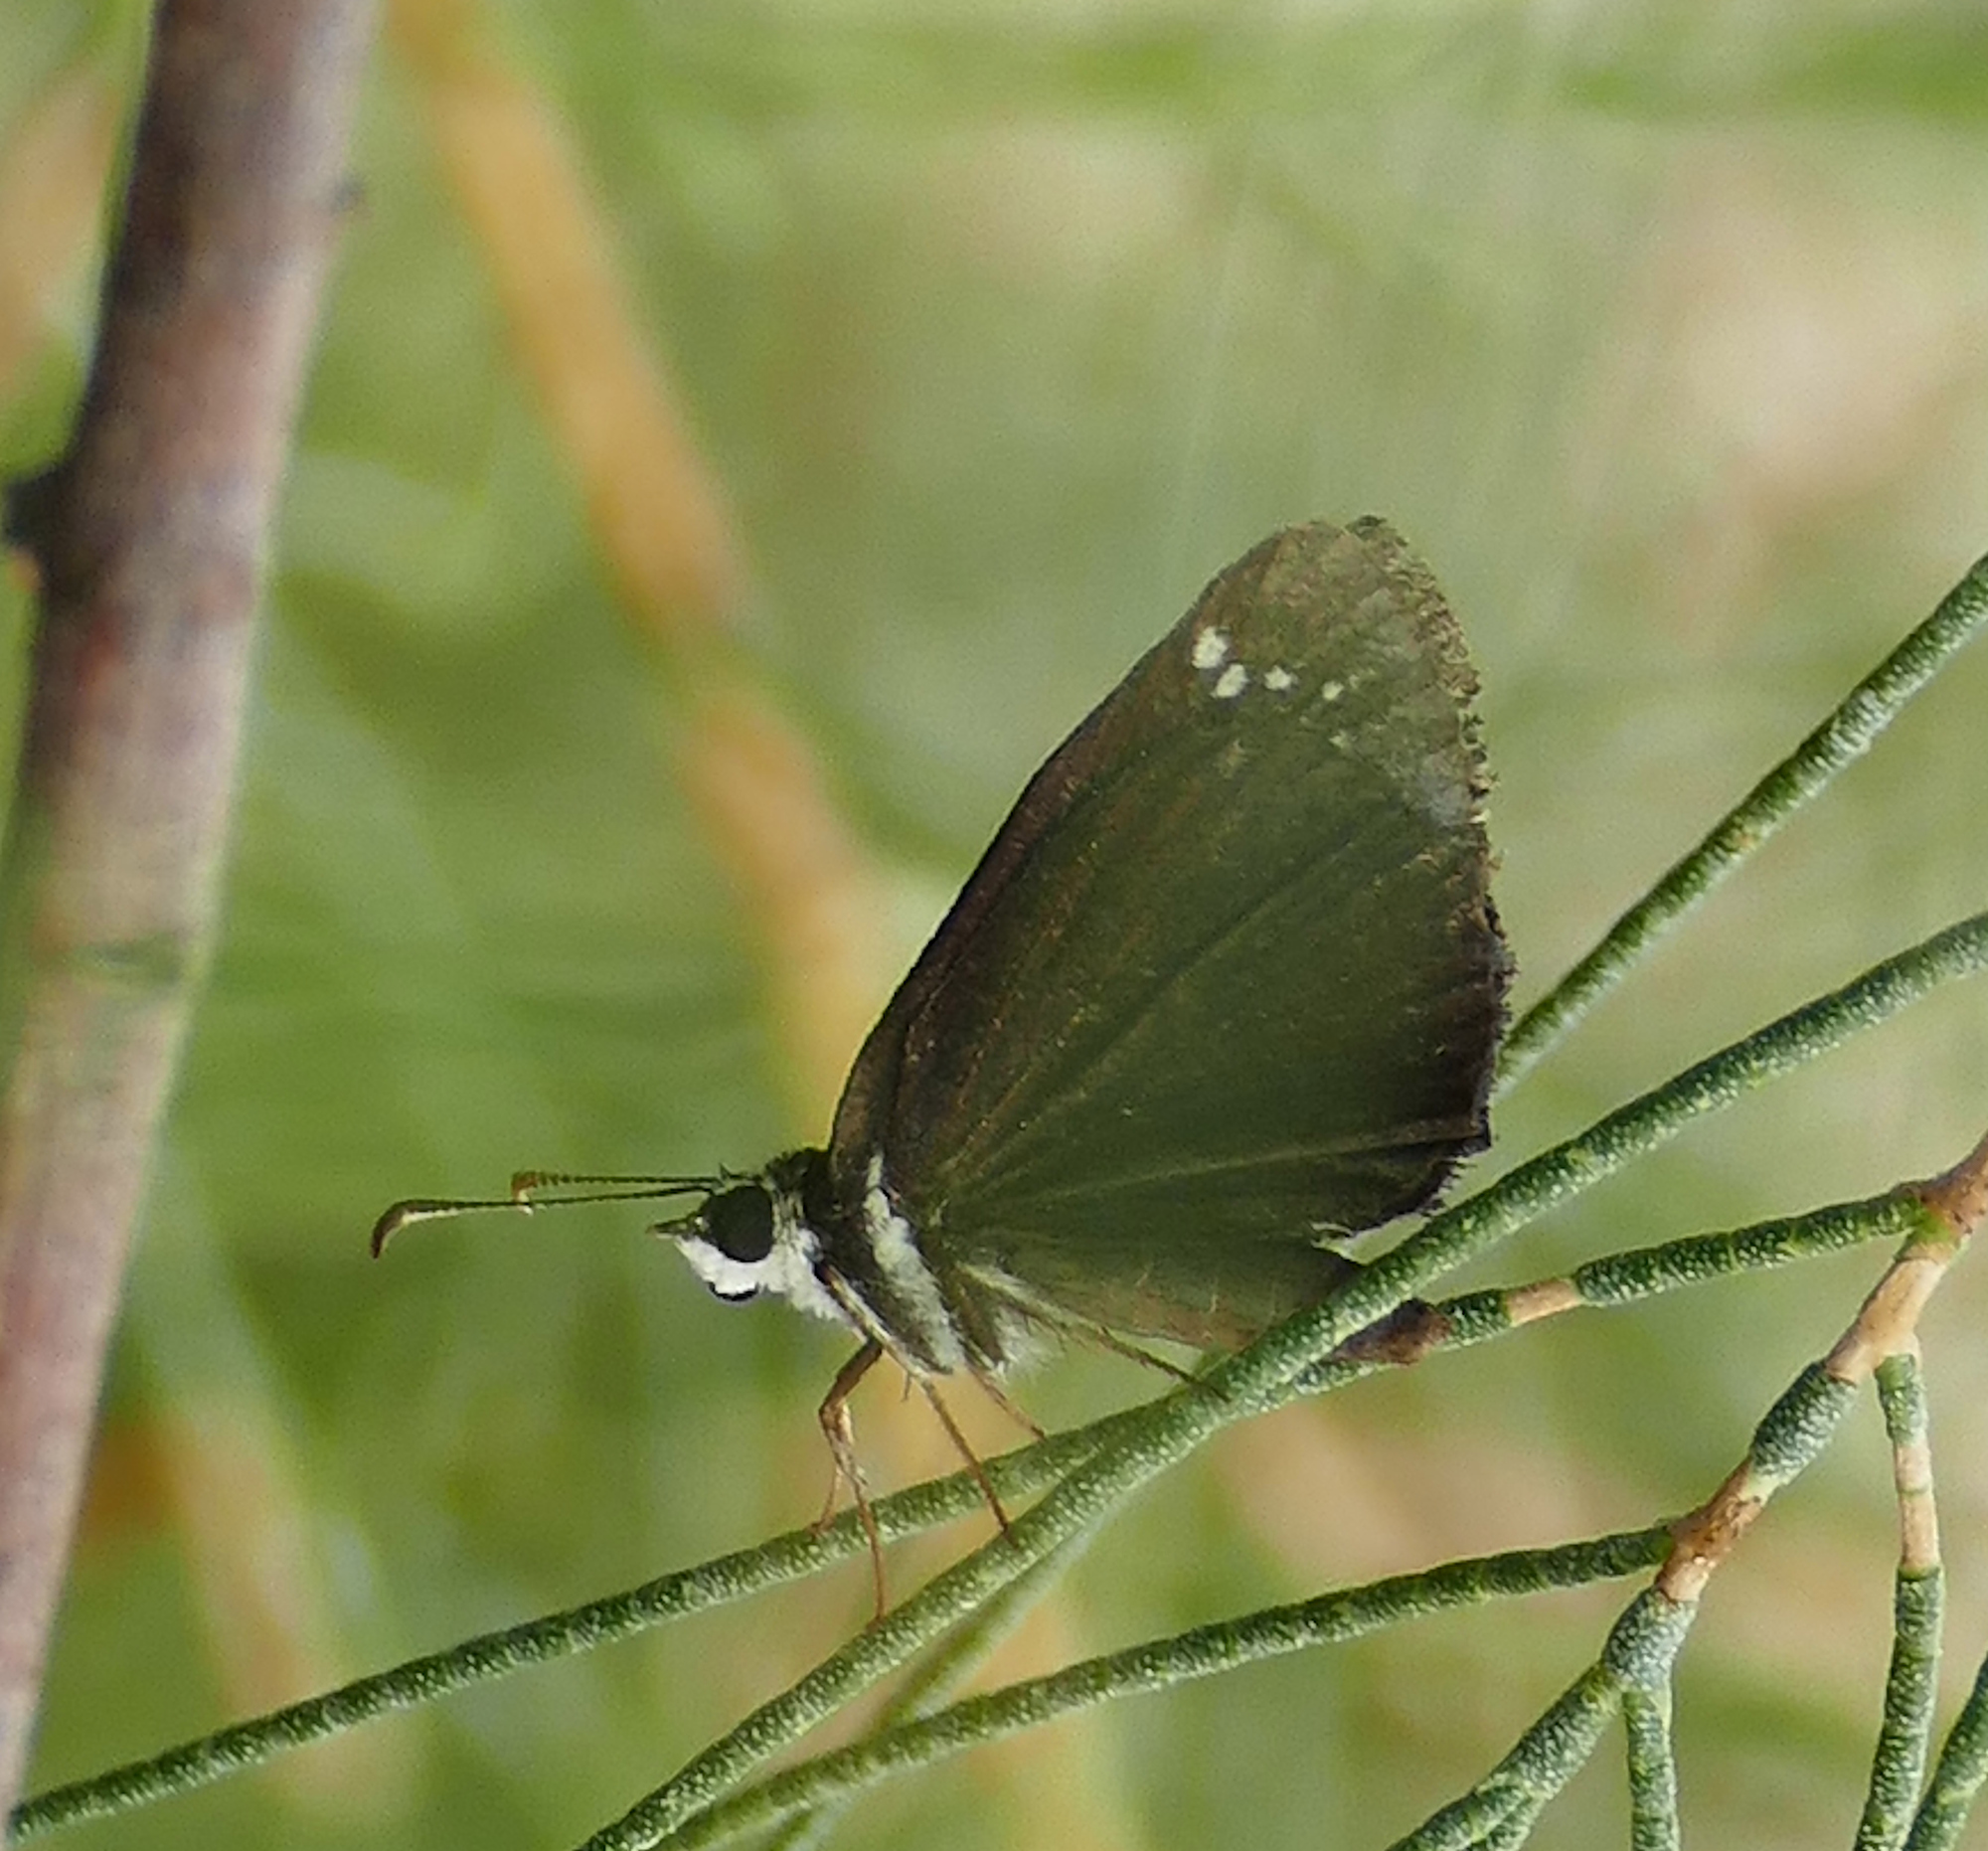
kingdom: Animalia
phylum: Arthropoda
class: Insecta
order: Lepidoptera
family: Hesperiidae
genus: Pholisora
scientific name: Pholisora catullus
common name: Common sootywing
